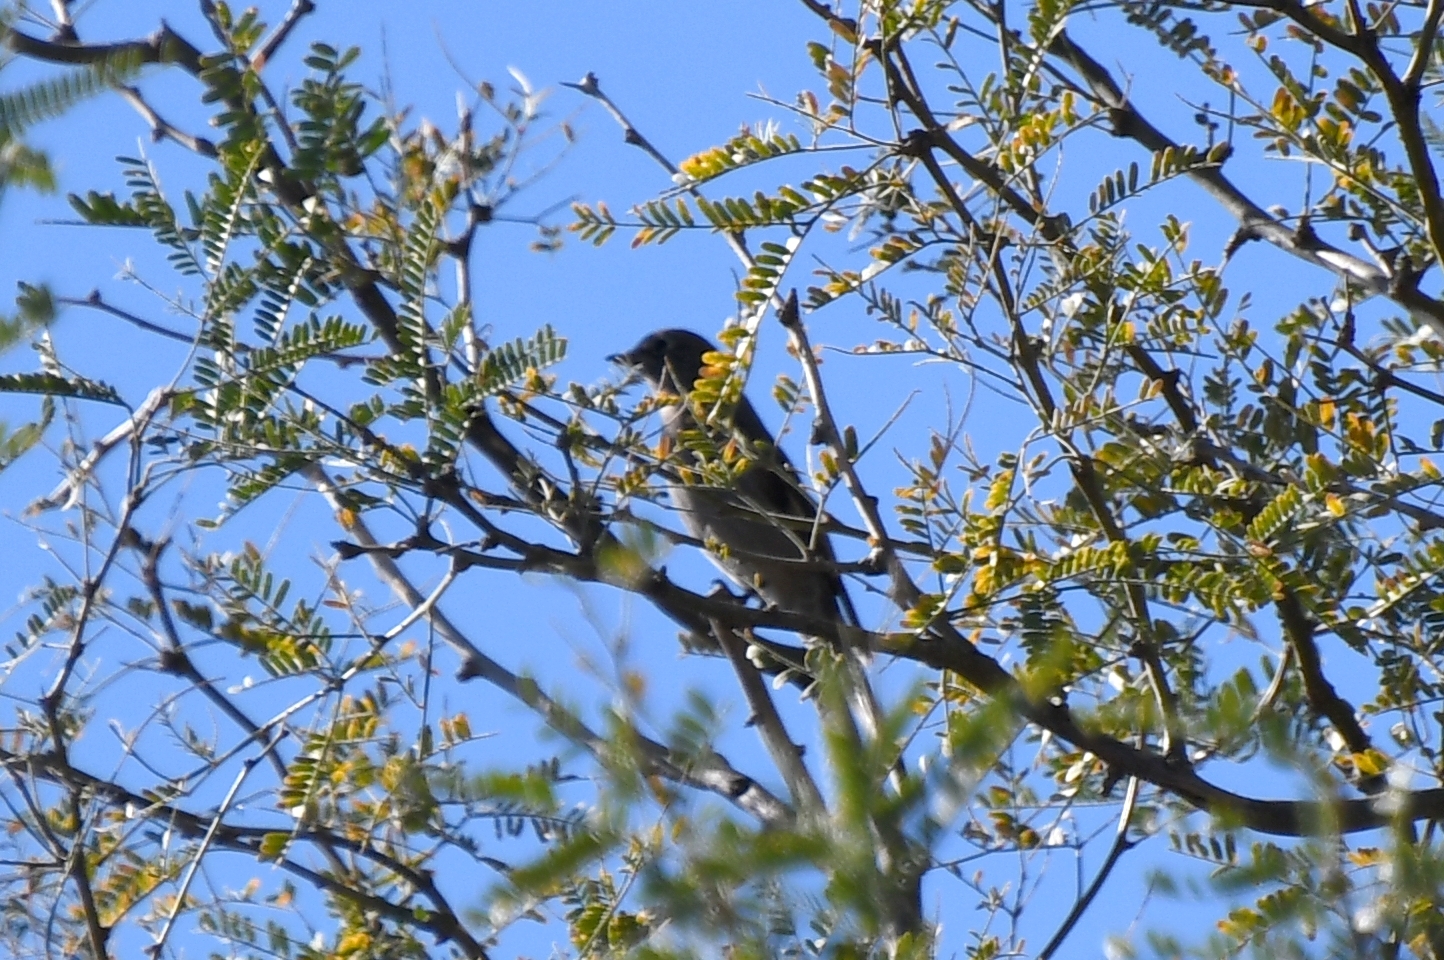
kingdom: Animalia
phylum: Chordata
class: Aves
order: Passeriformes
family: Turdidae
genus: Myadestes
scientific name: Myadestes townsendi
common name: Townsend's solitaire
